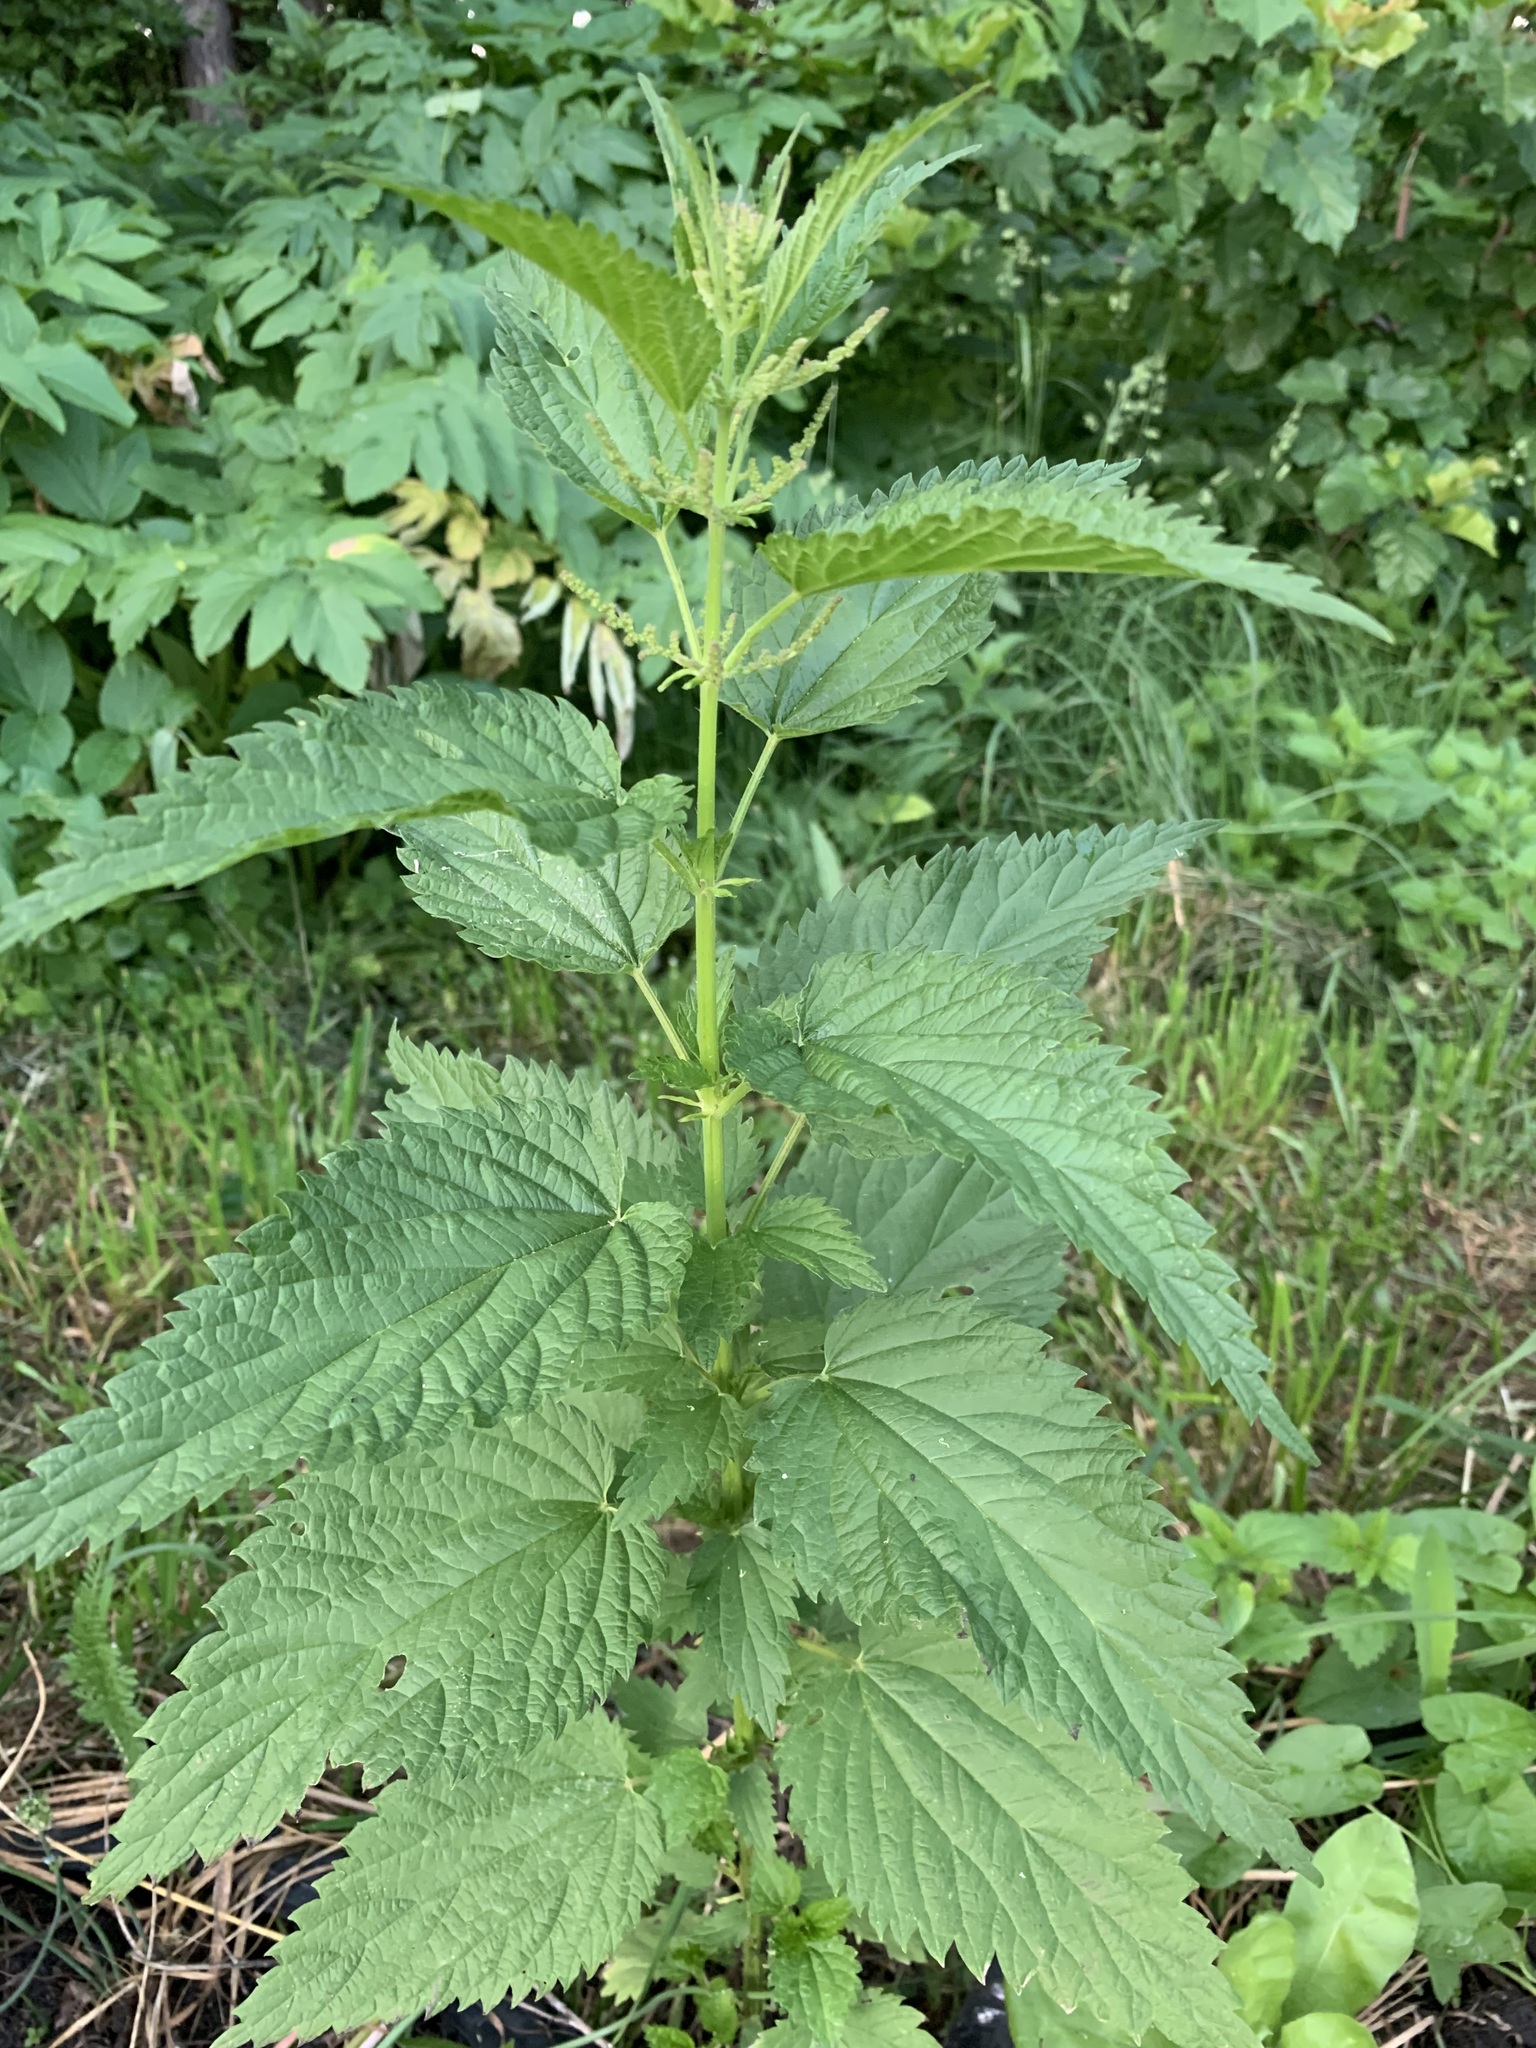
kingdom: Plantae
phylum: Tracheophyta
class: Magnoliopsida
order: Rosales
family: Urticaceae
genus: Urtica
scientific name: Urtica dioica
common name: Common nettle
